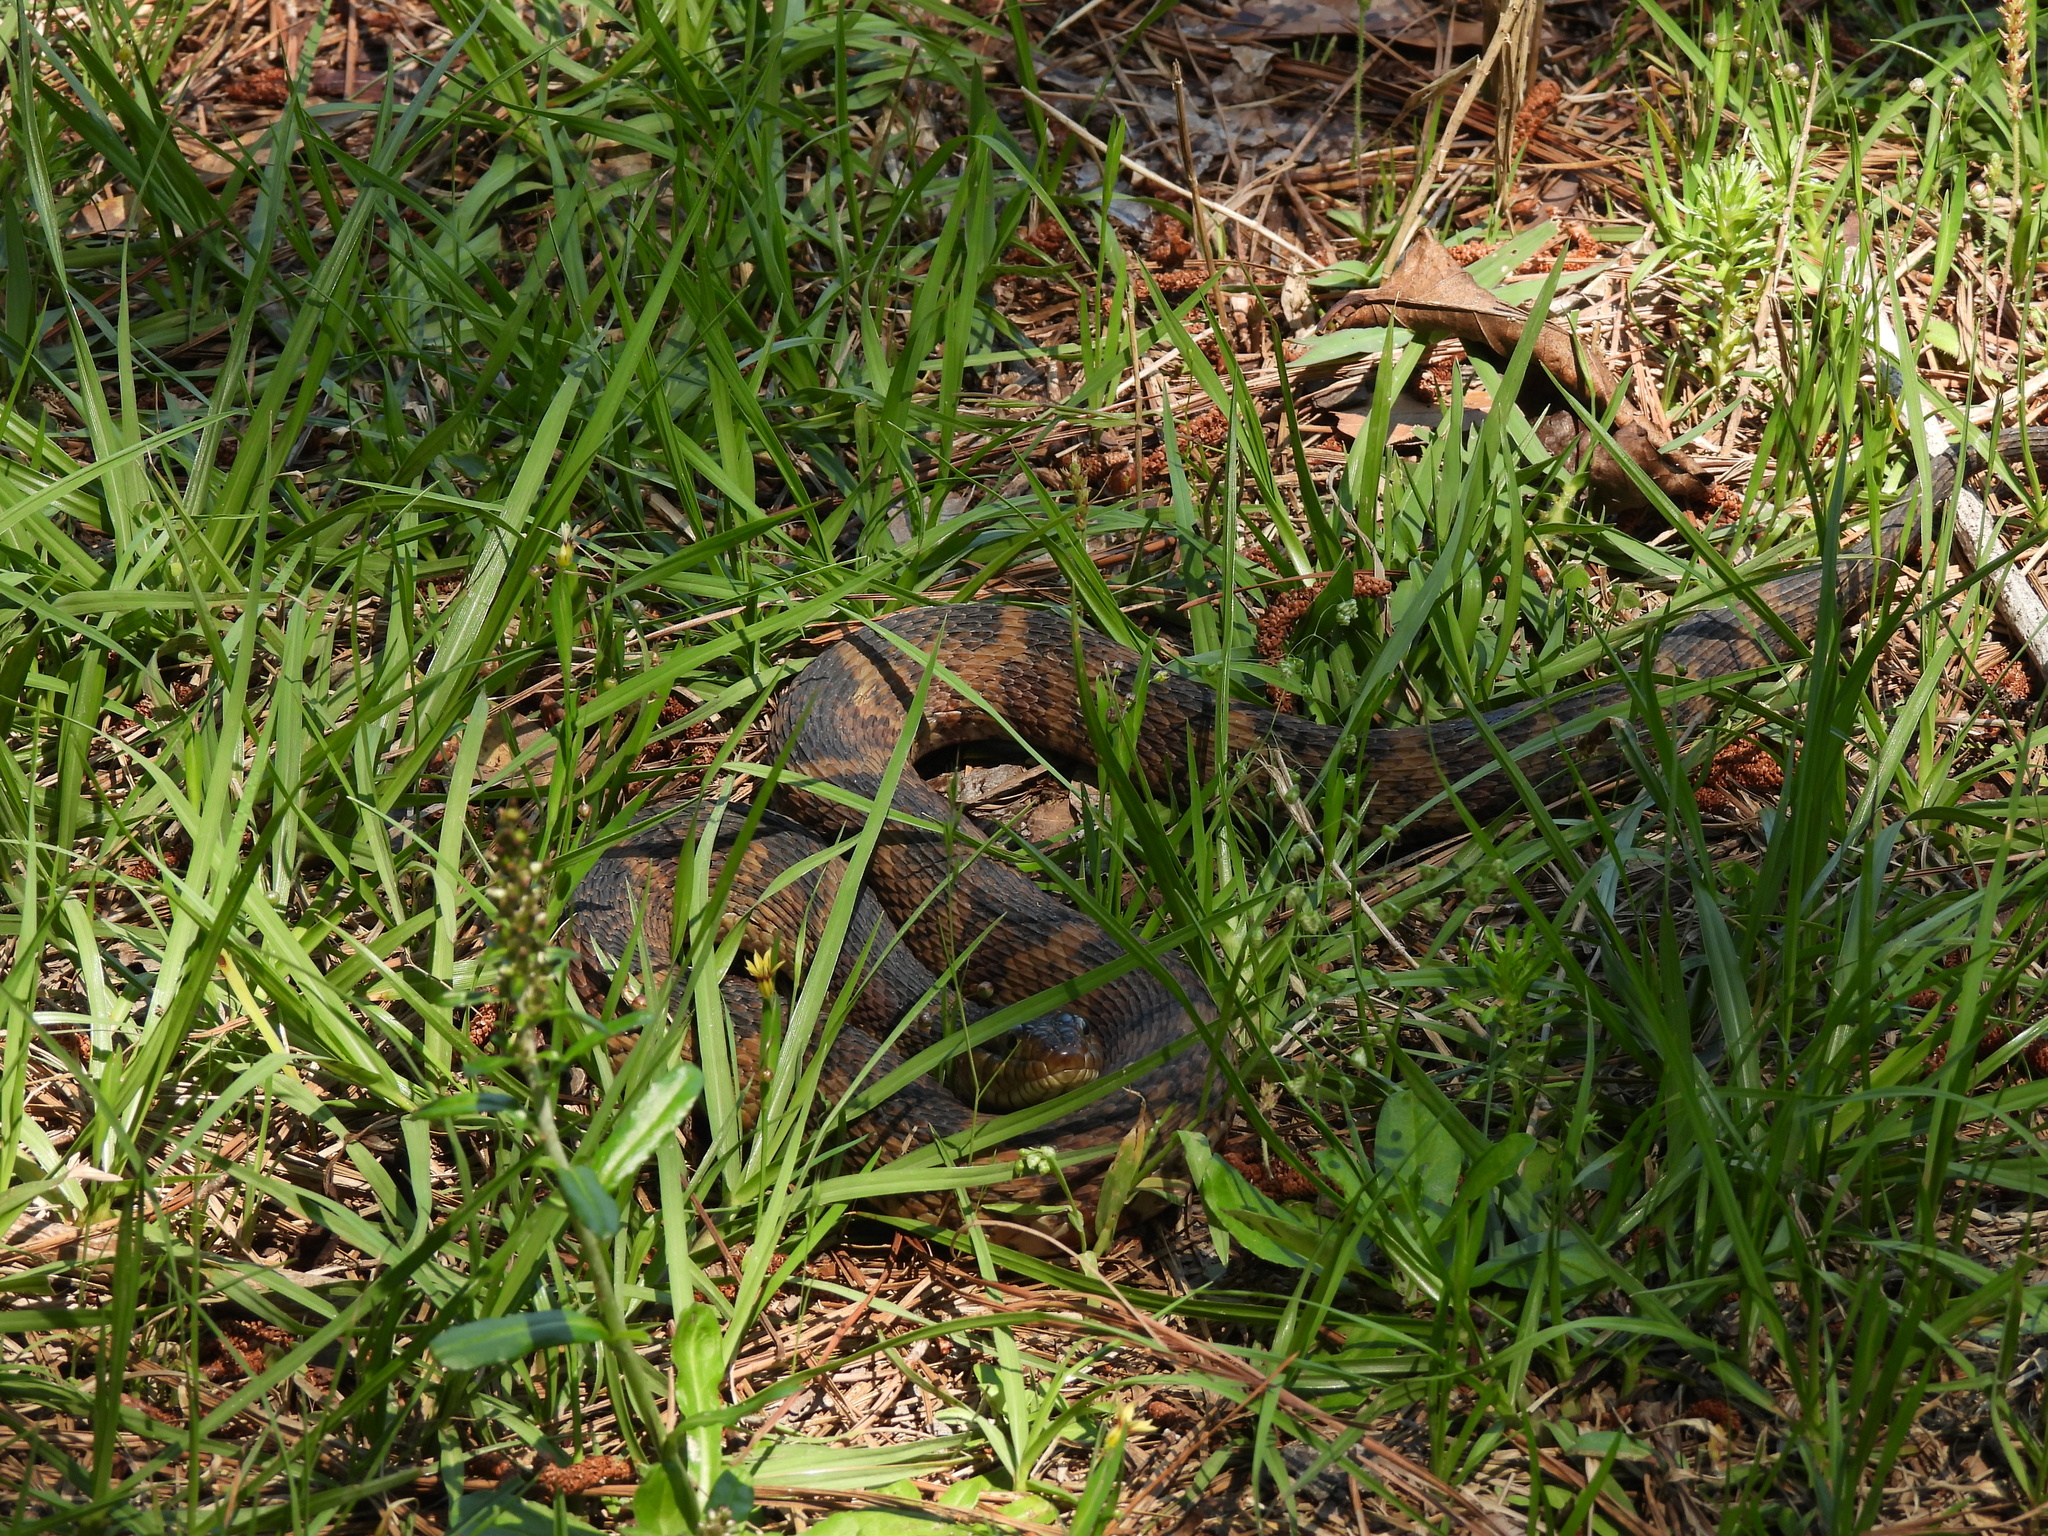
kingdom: Animalia
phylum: Chordata
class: Squamata
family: Colubridae
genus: Nerodia
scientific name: Nerodia fasciata
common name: Southern water snake
